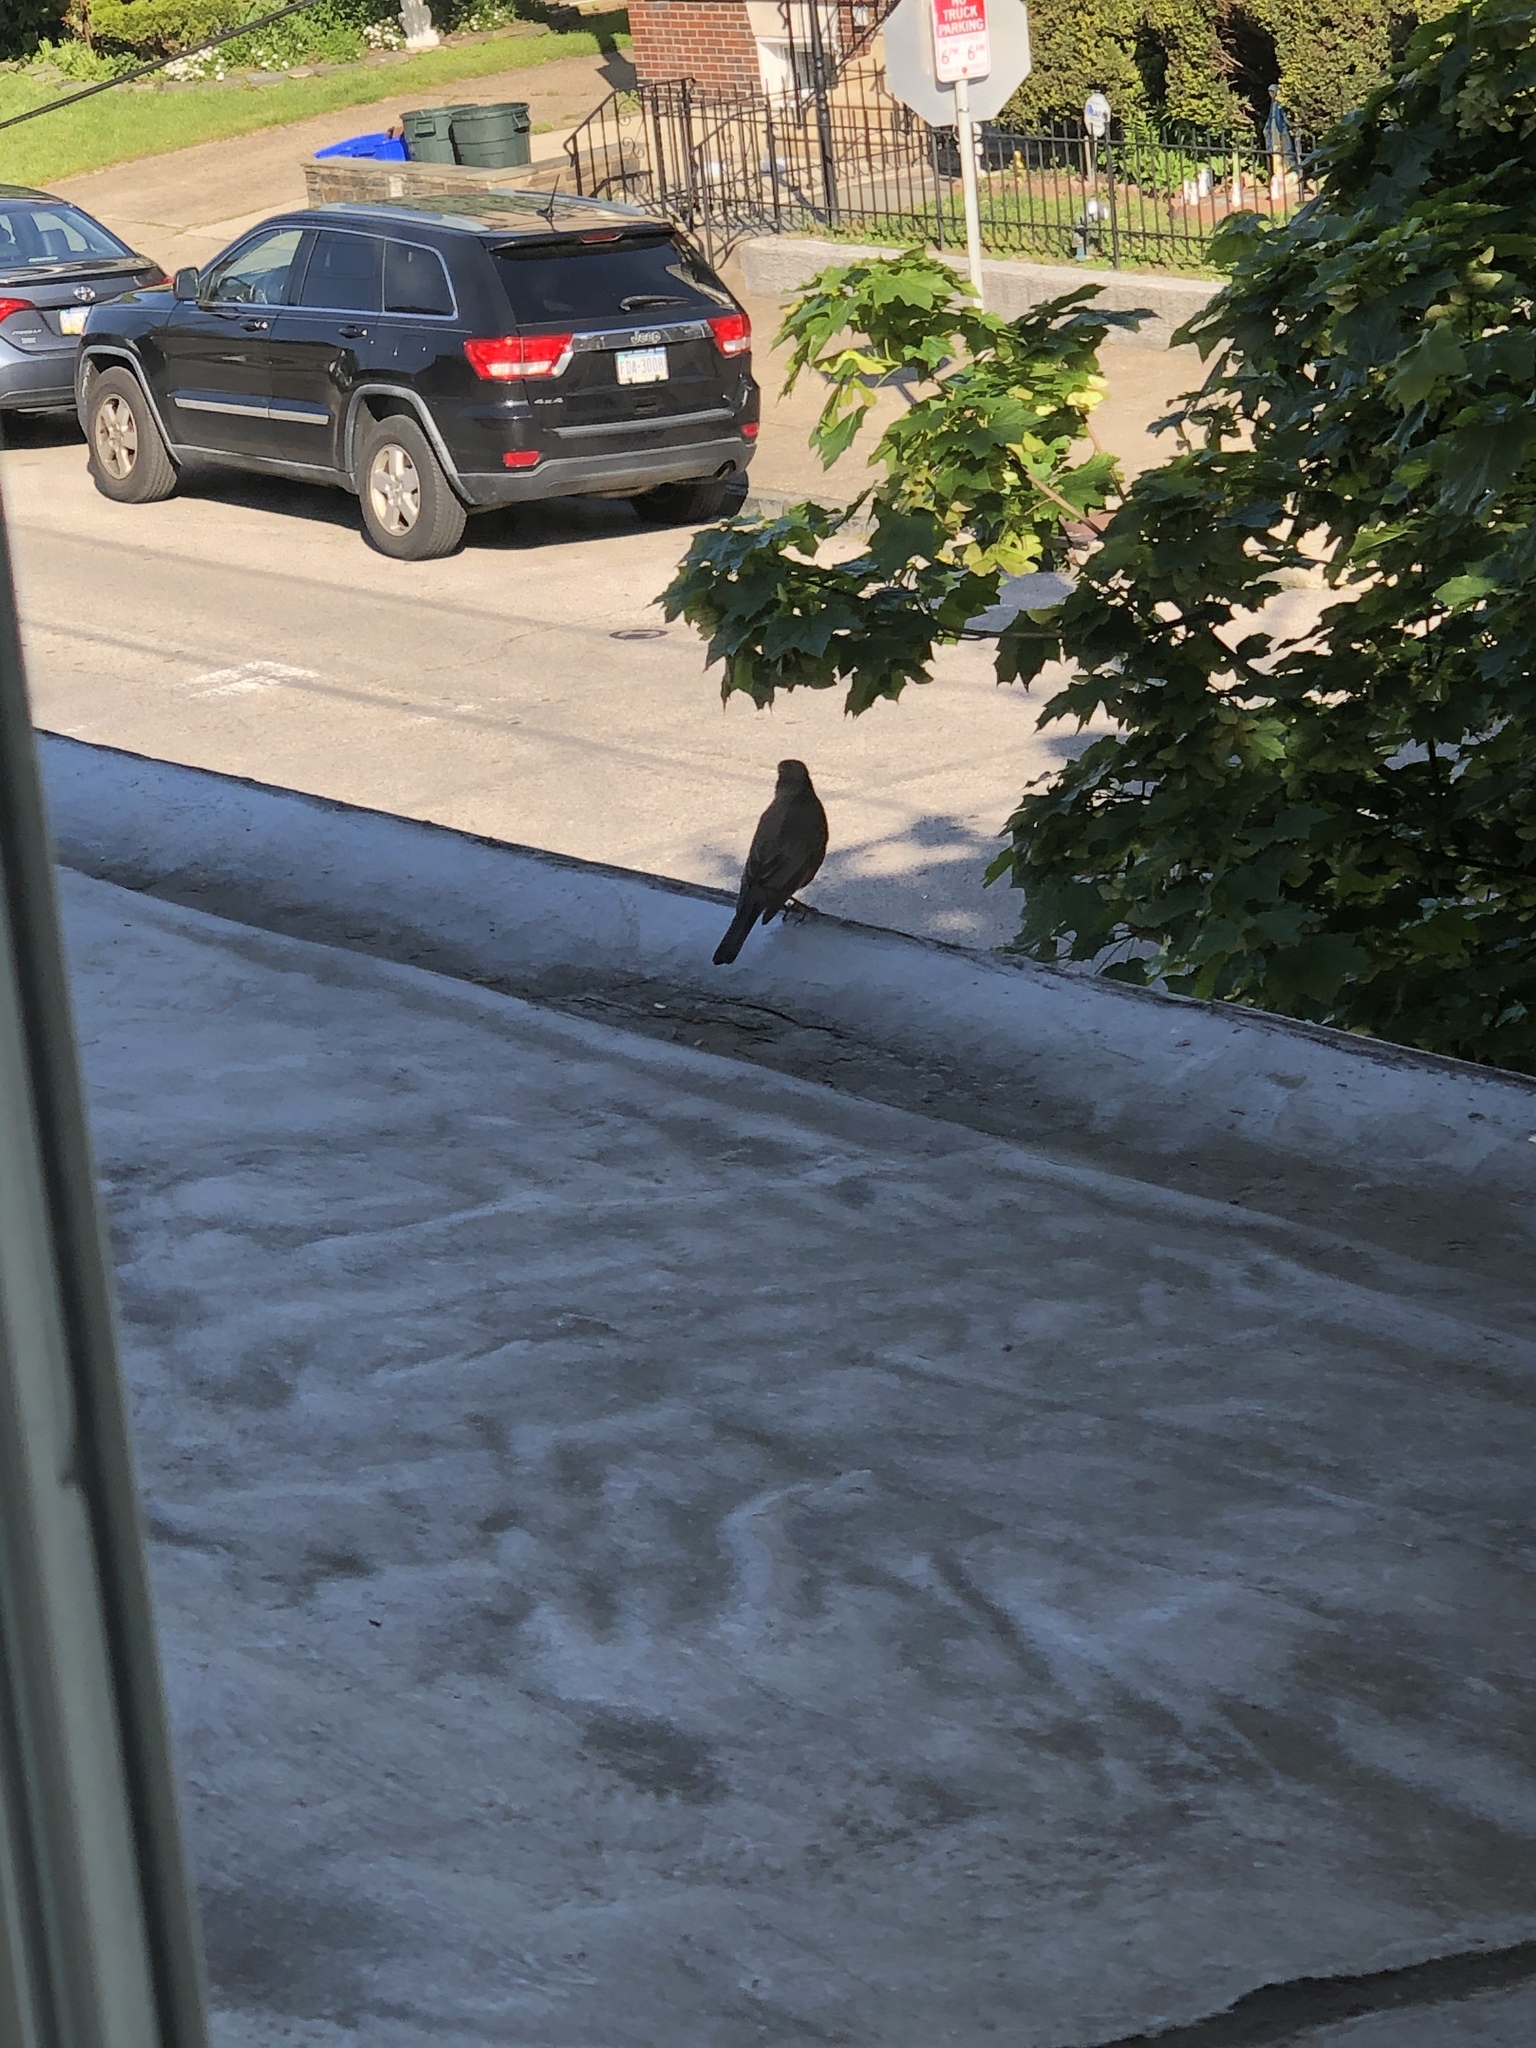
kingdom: Animalia
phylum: Chordata
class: Aves
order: Passeriformes
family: Turdidae
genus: Turdus
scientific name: Turdus migratorius
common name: American robin
